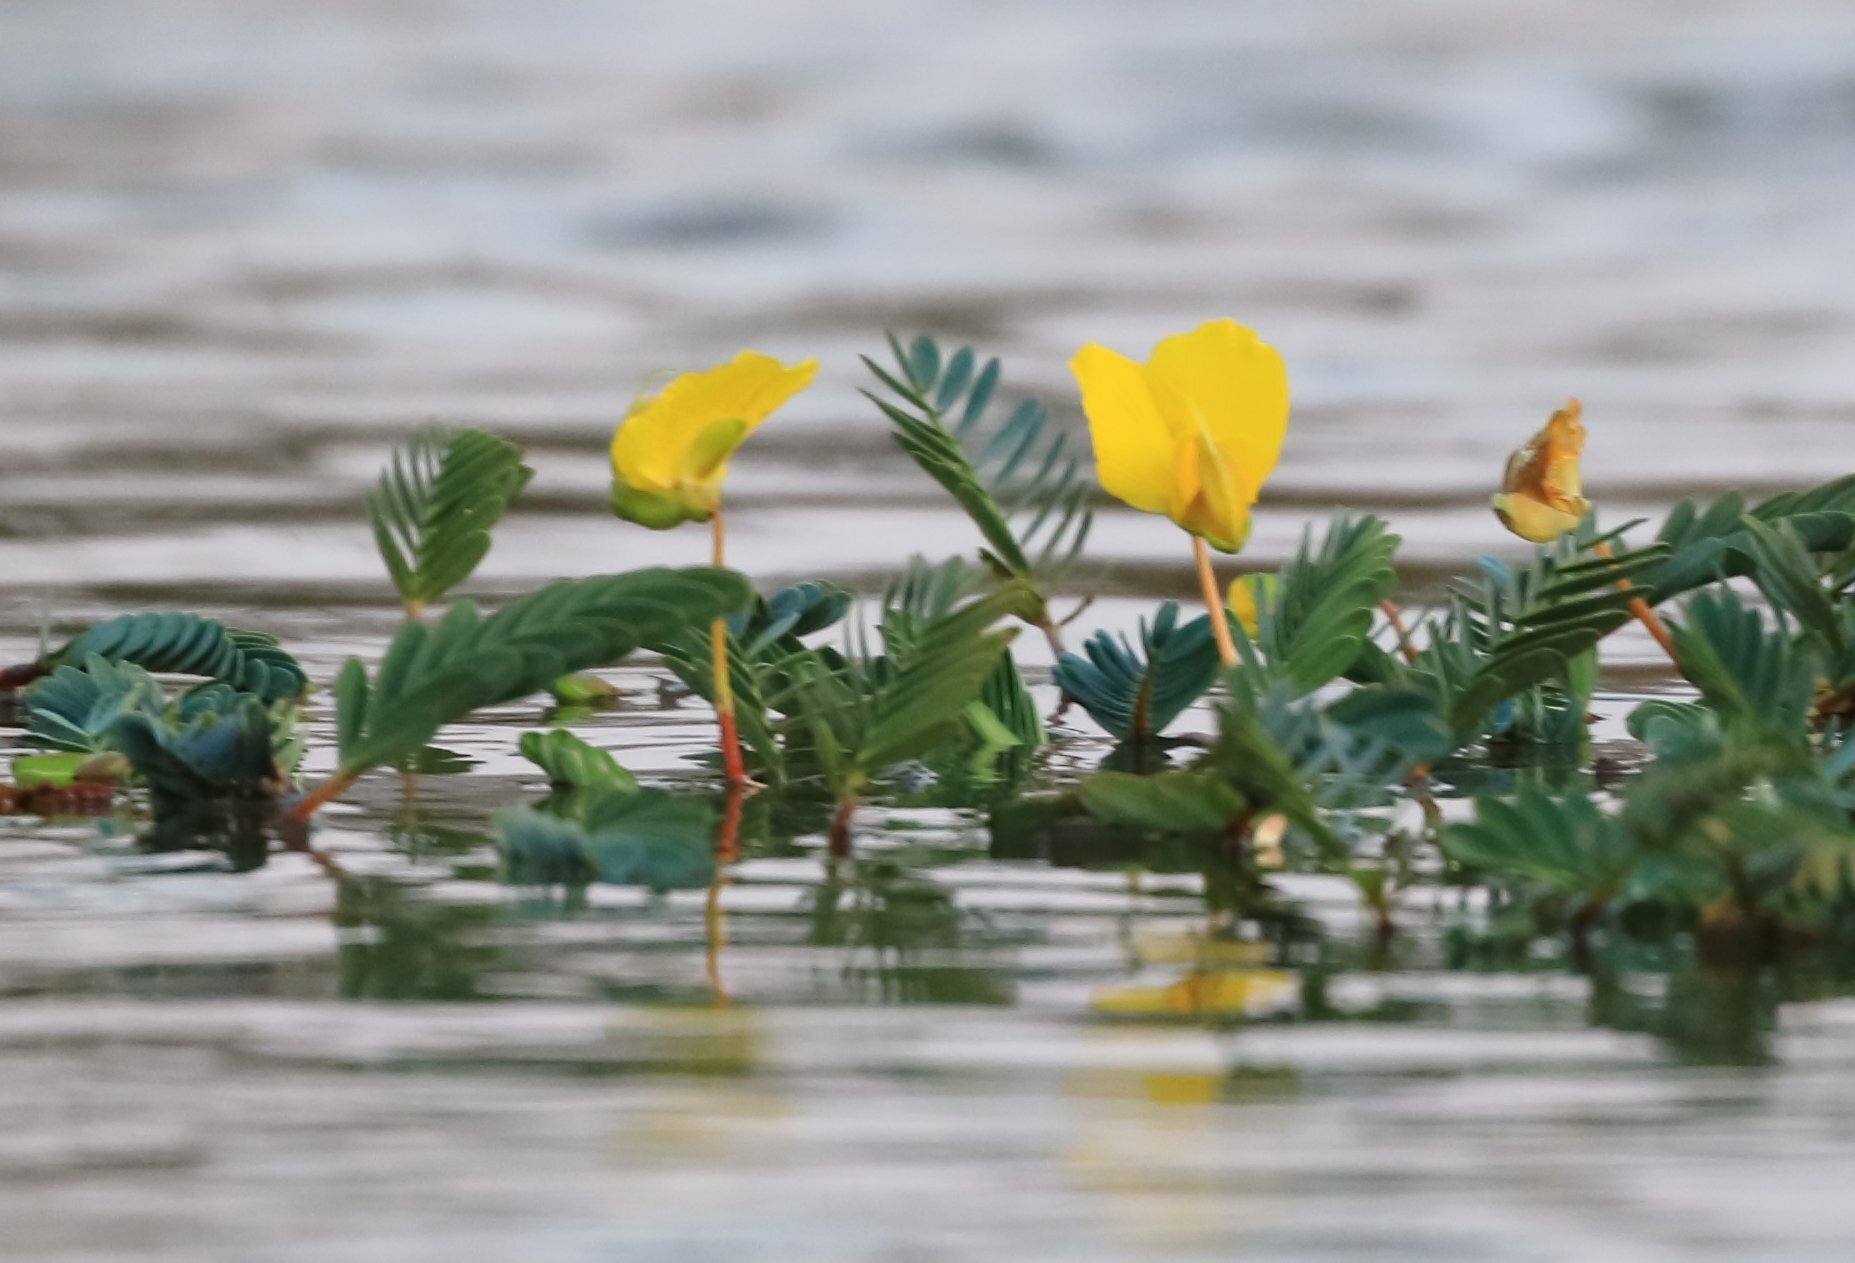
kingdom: Plantae
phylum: Tracheophyta
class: Magnoliopsida
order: Fabales
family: Fabaceae
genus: Aeschynomene
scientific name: Aeschynomene fluitans
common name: Giant water sensitive plant
